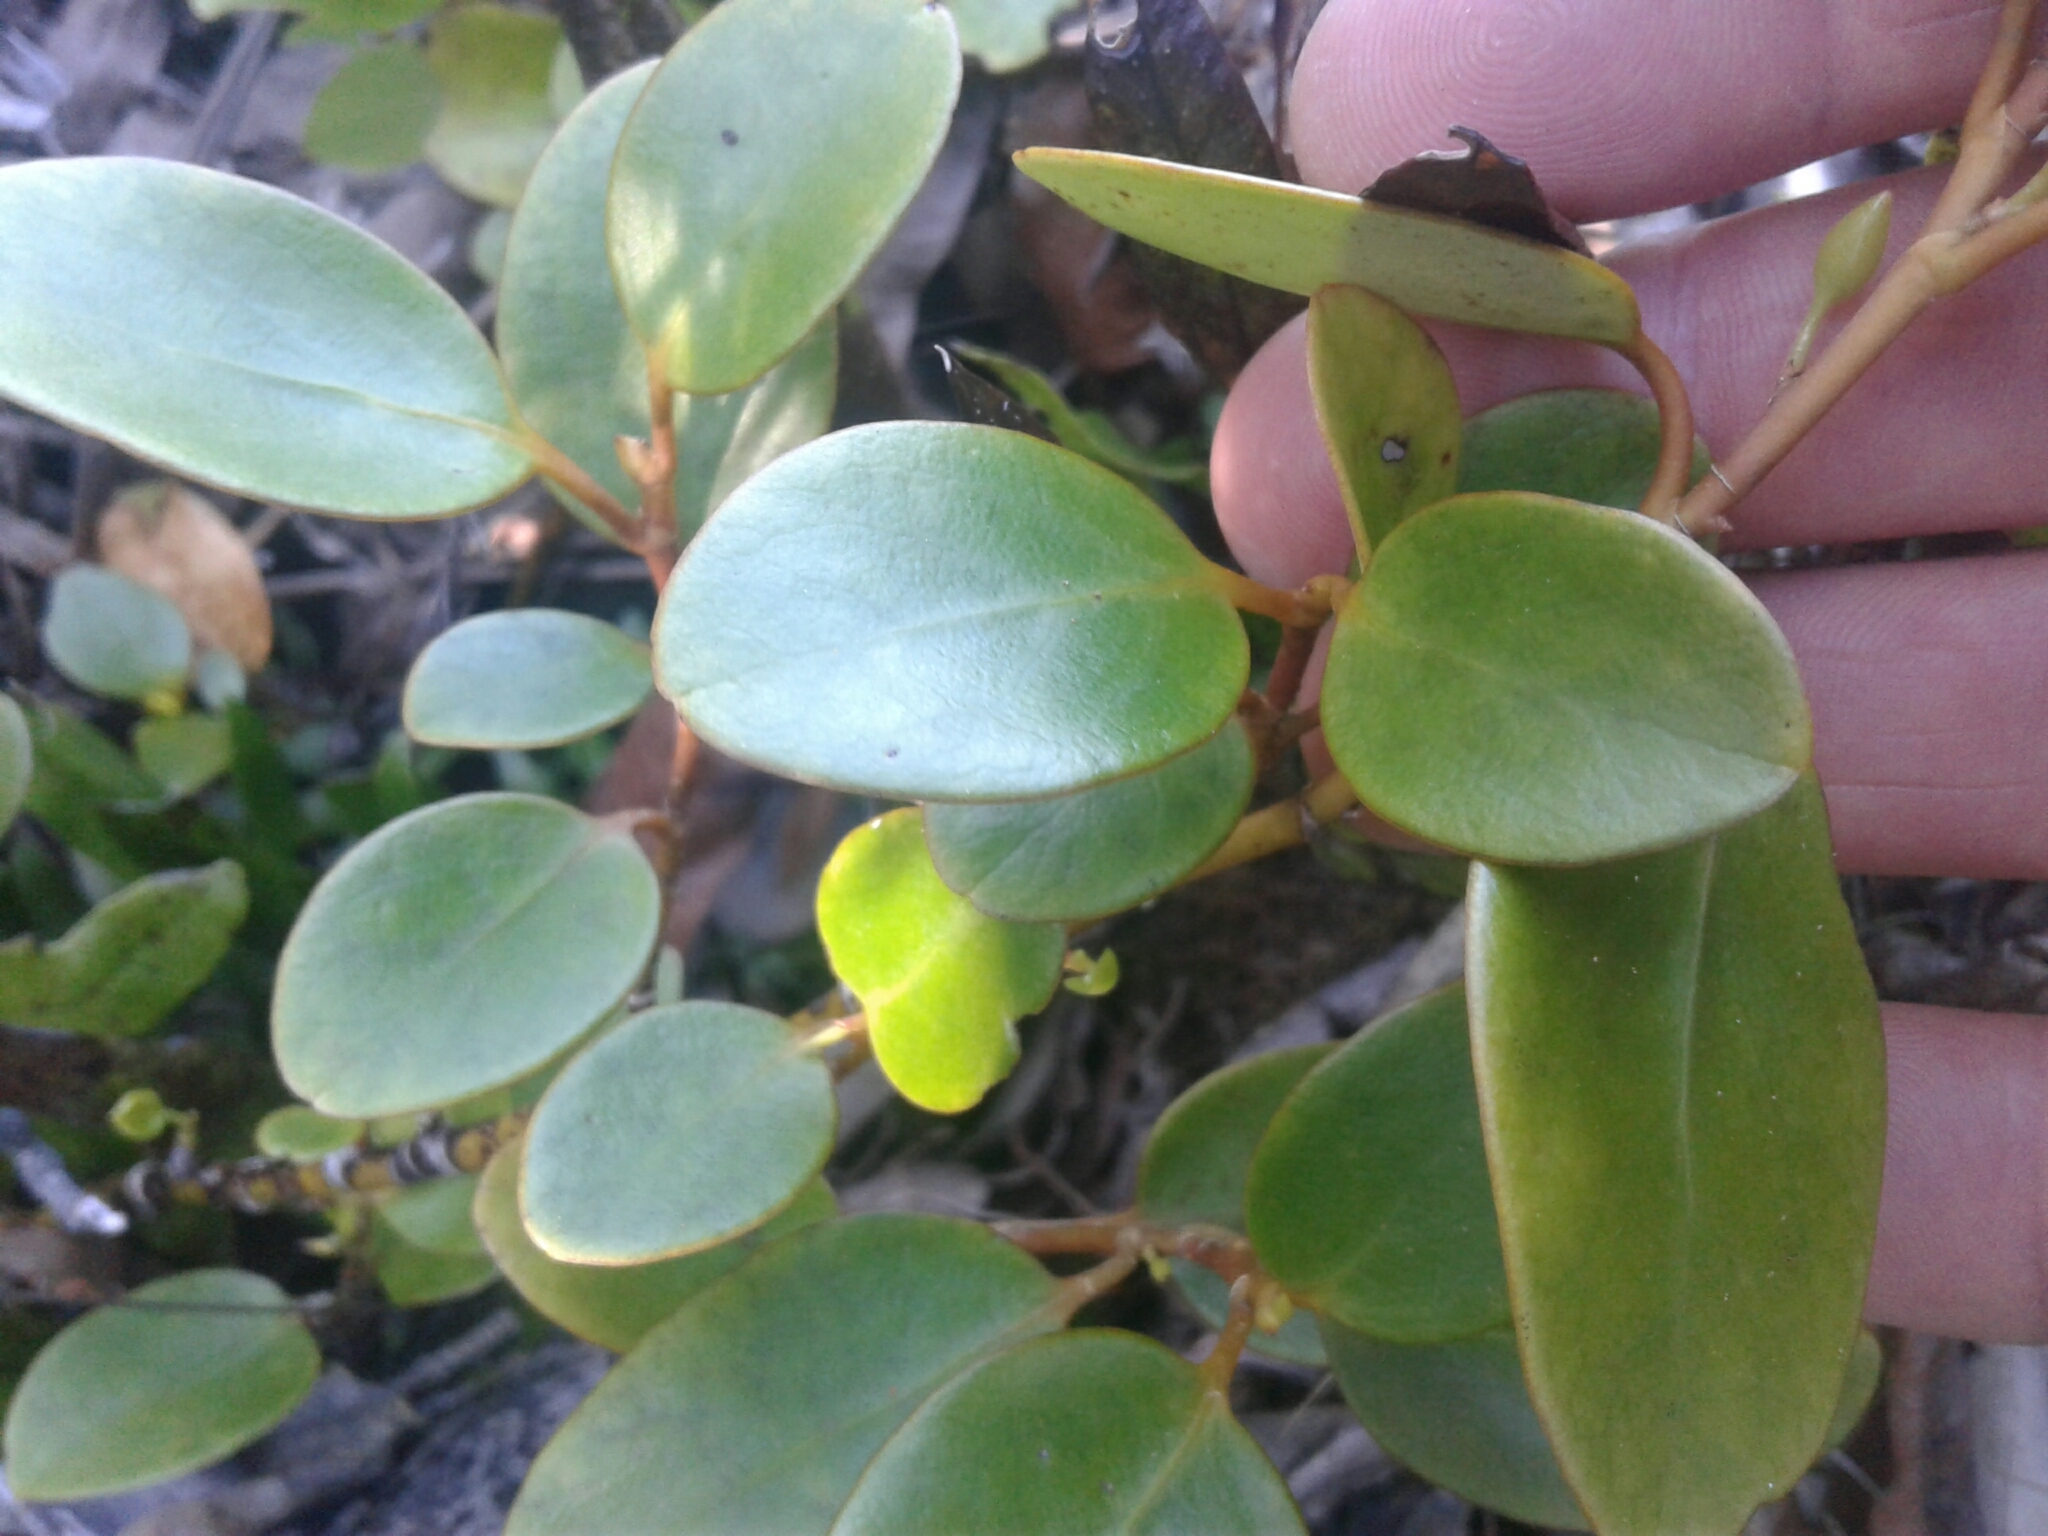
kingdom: Plantae
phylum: Tracheophyta
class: Magnoliopsida
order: Apiales
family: Griseliniaceae
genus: Griselinia
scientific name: Griselinia littoralis
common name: New zealand broadleaf
